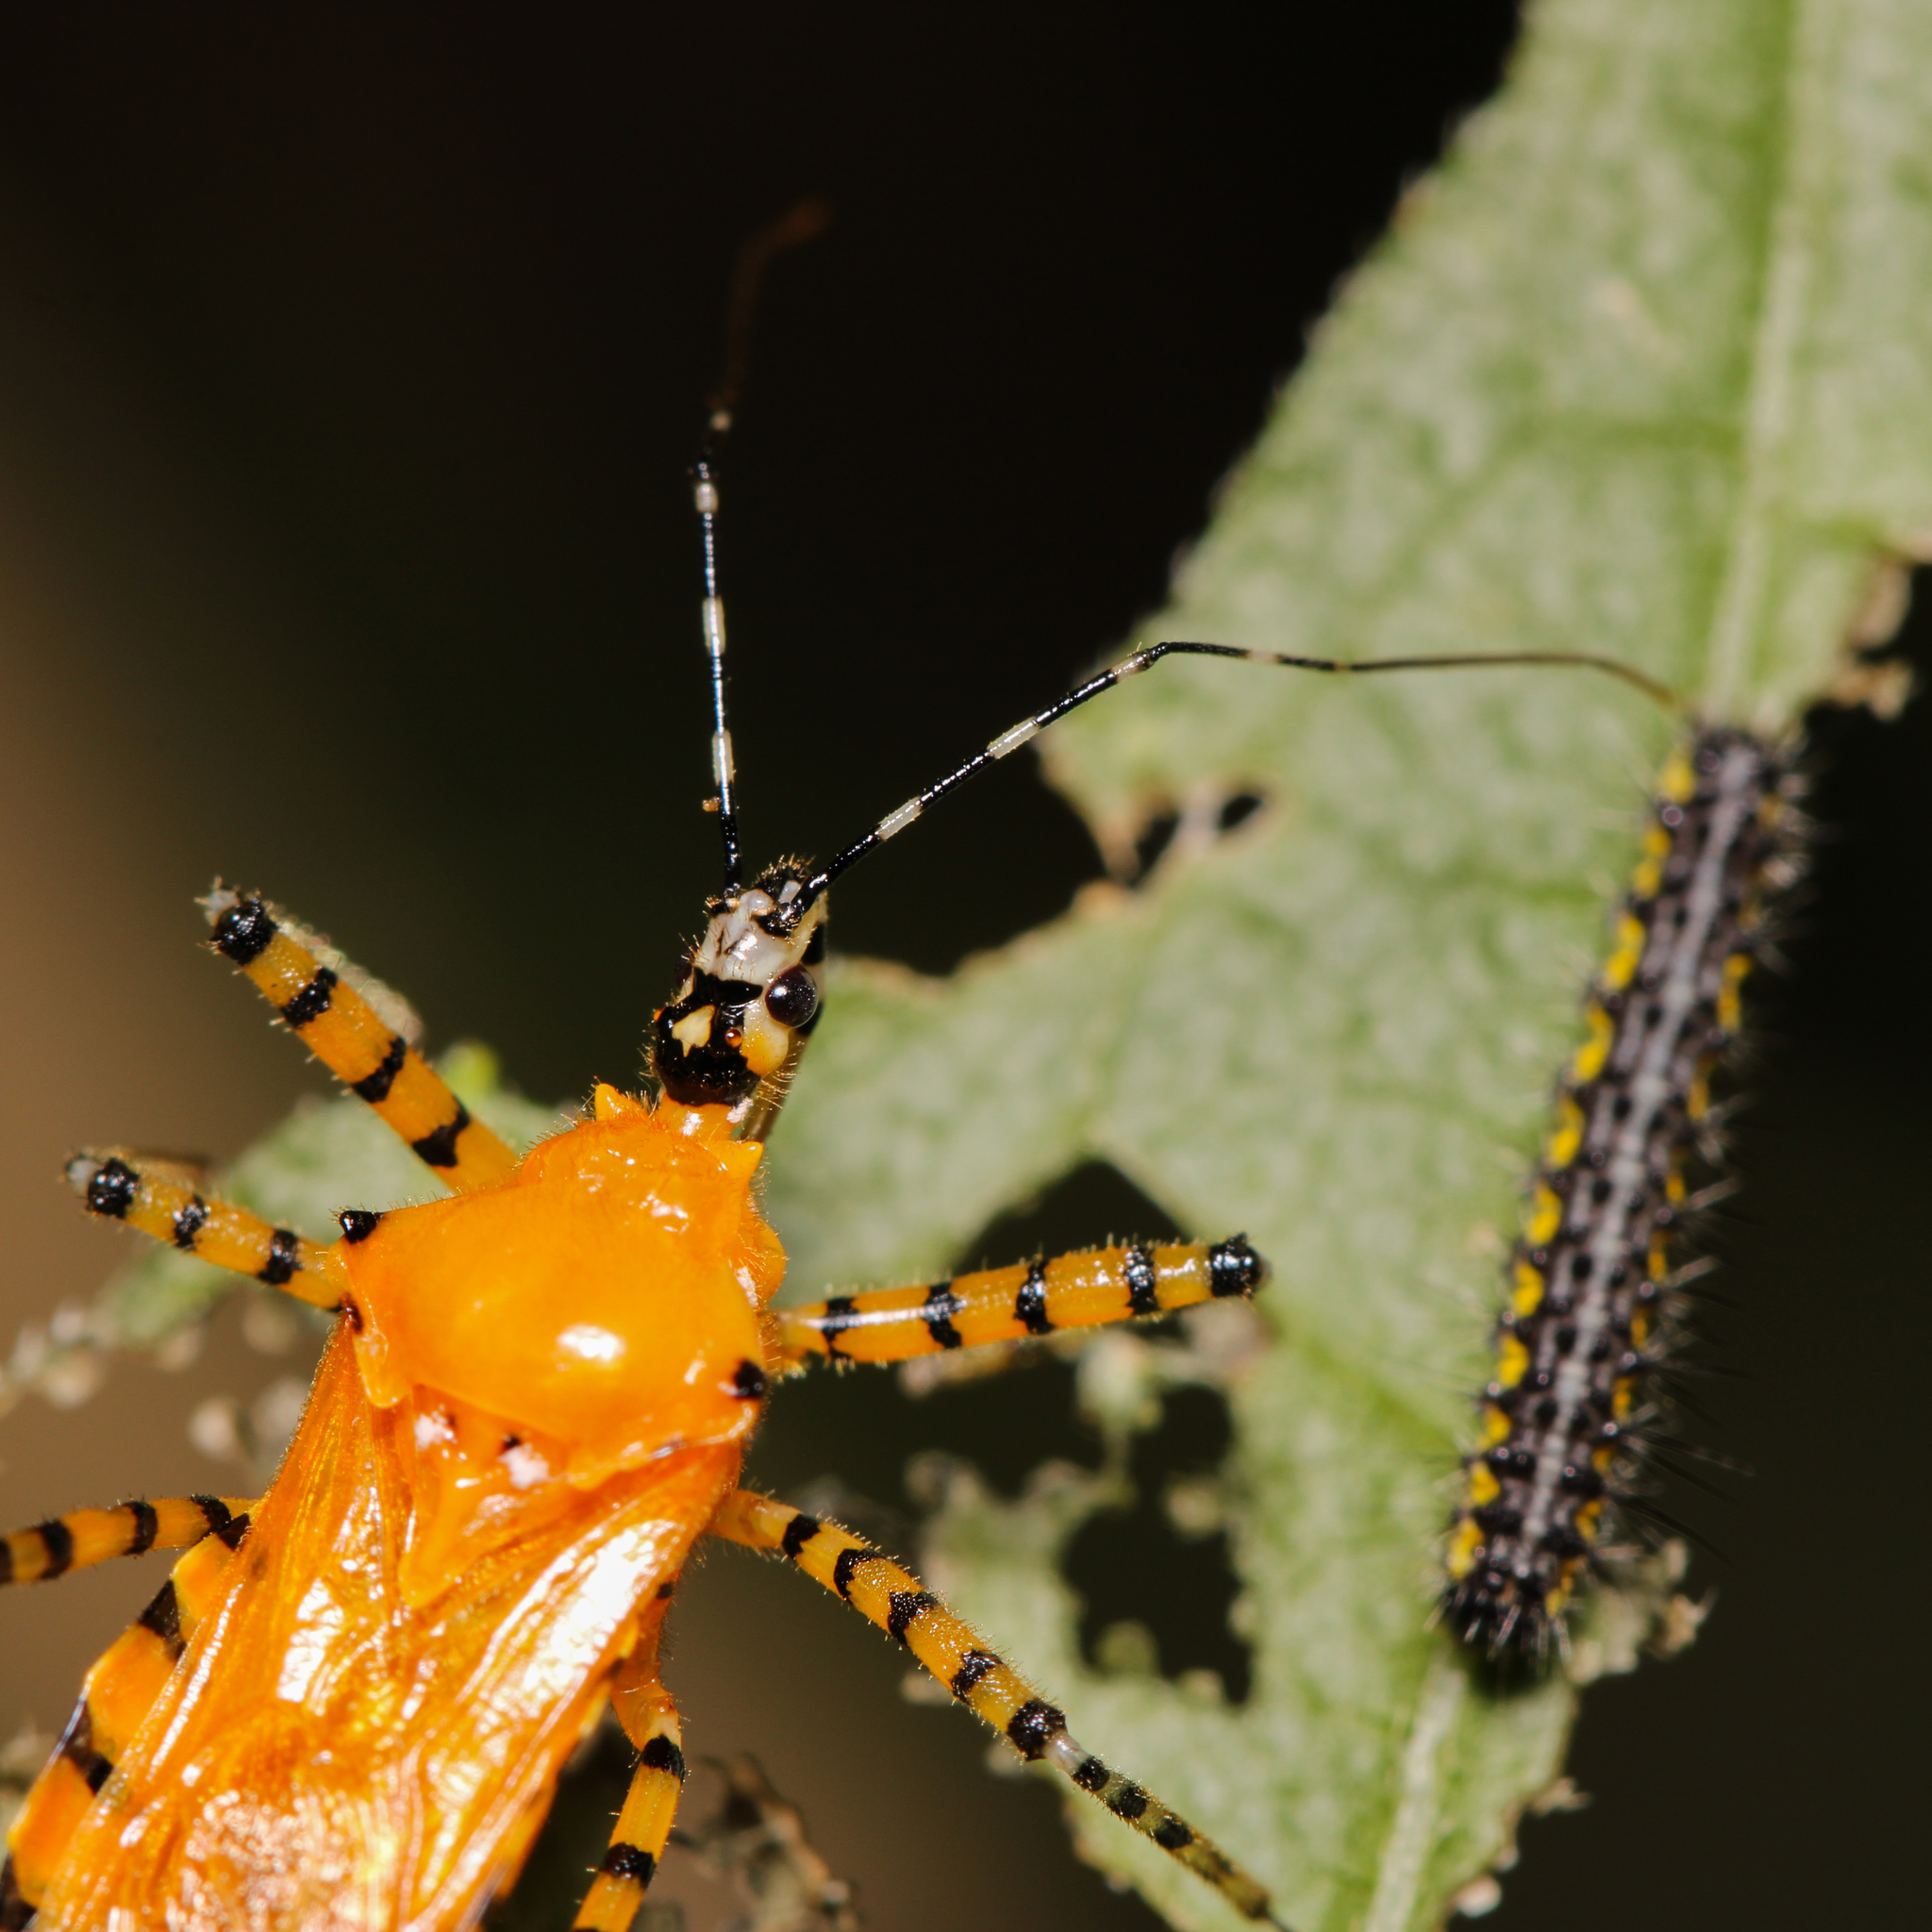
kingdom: Animalia
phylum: Arthropoda
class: Insecta
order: Hemiptera
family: Reduviidae
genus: Pselliopus
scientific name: Pselliopus barberi
